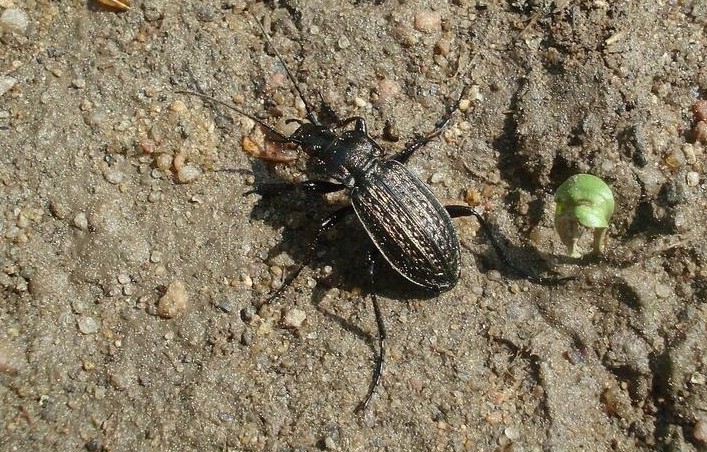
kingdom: Animalia
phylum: Arthropoda
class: Insecta
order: Coleoptera
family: Carabidae
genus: Carabus
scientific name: Carabus granulatus
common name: Granulate ground beetle
